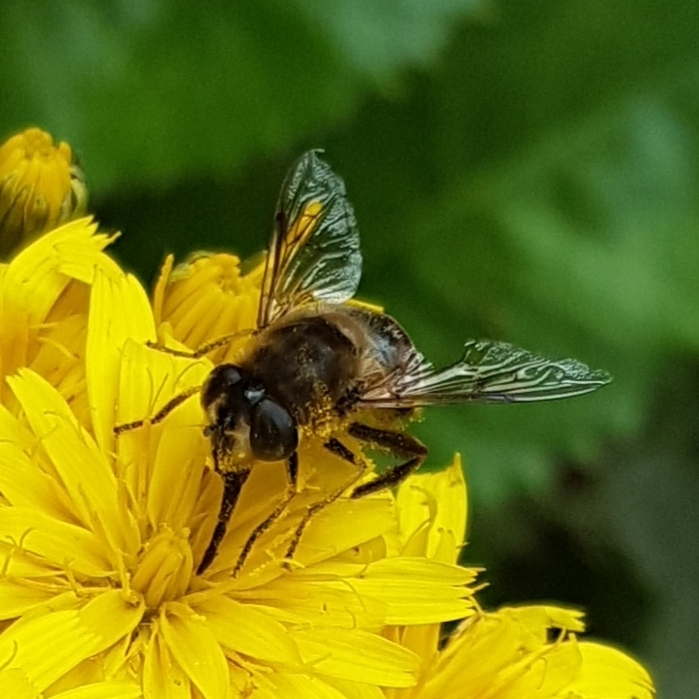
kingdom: Animalia
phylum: Arthropoda
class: Insecta
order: Diptera
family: Syrphidae
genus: Eristalis
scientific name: Eristalis tenax
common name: Drone fly
